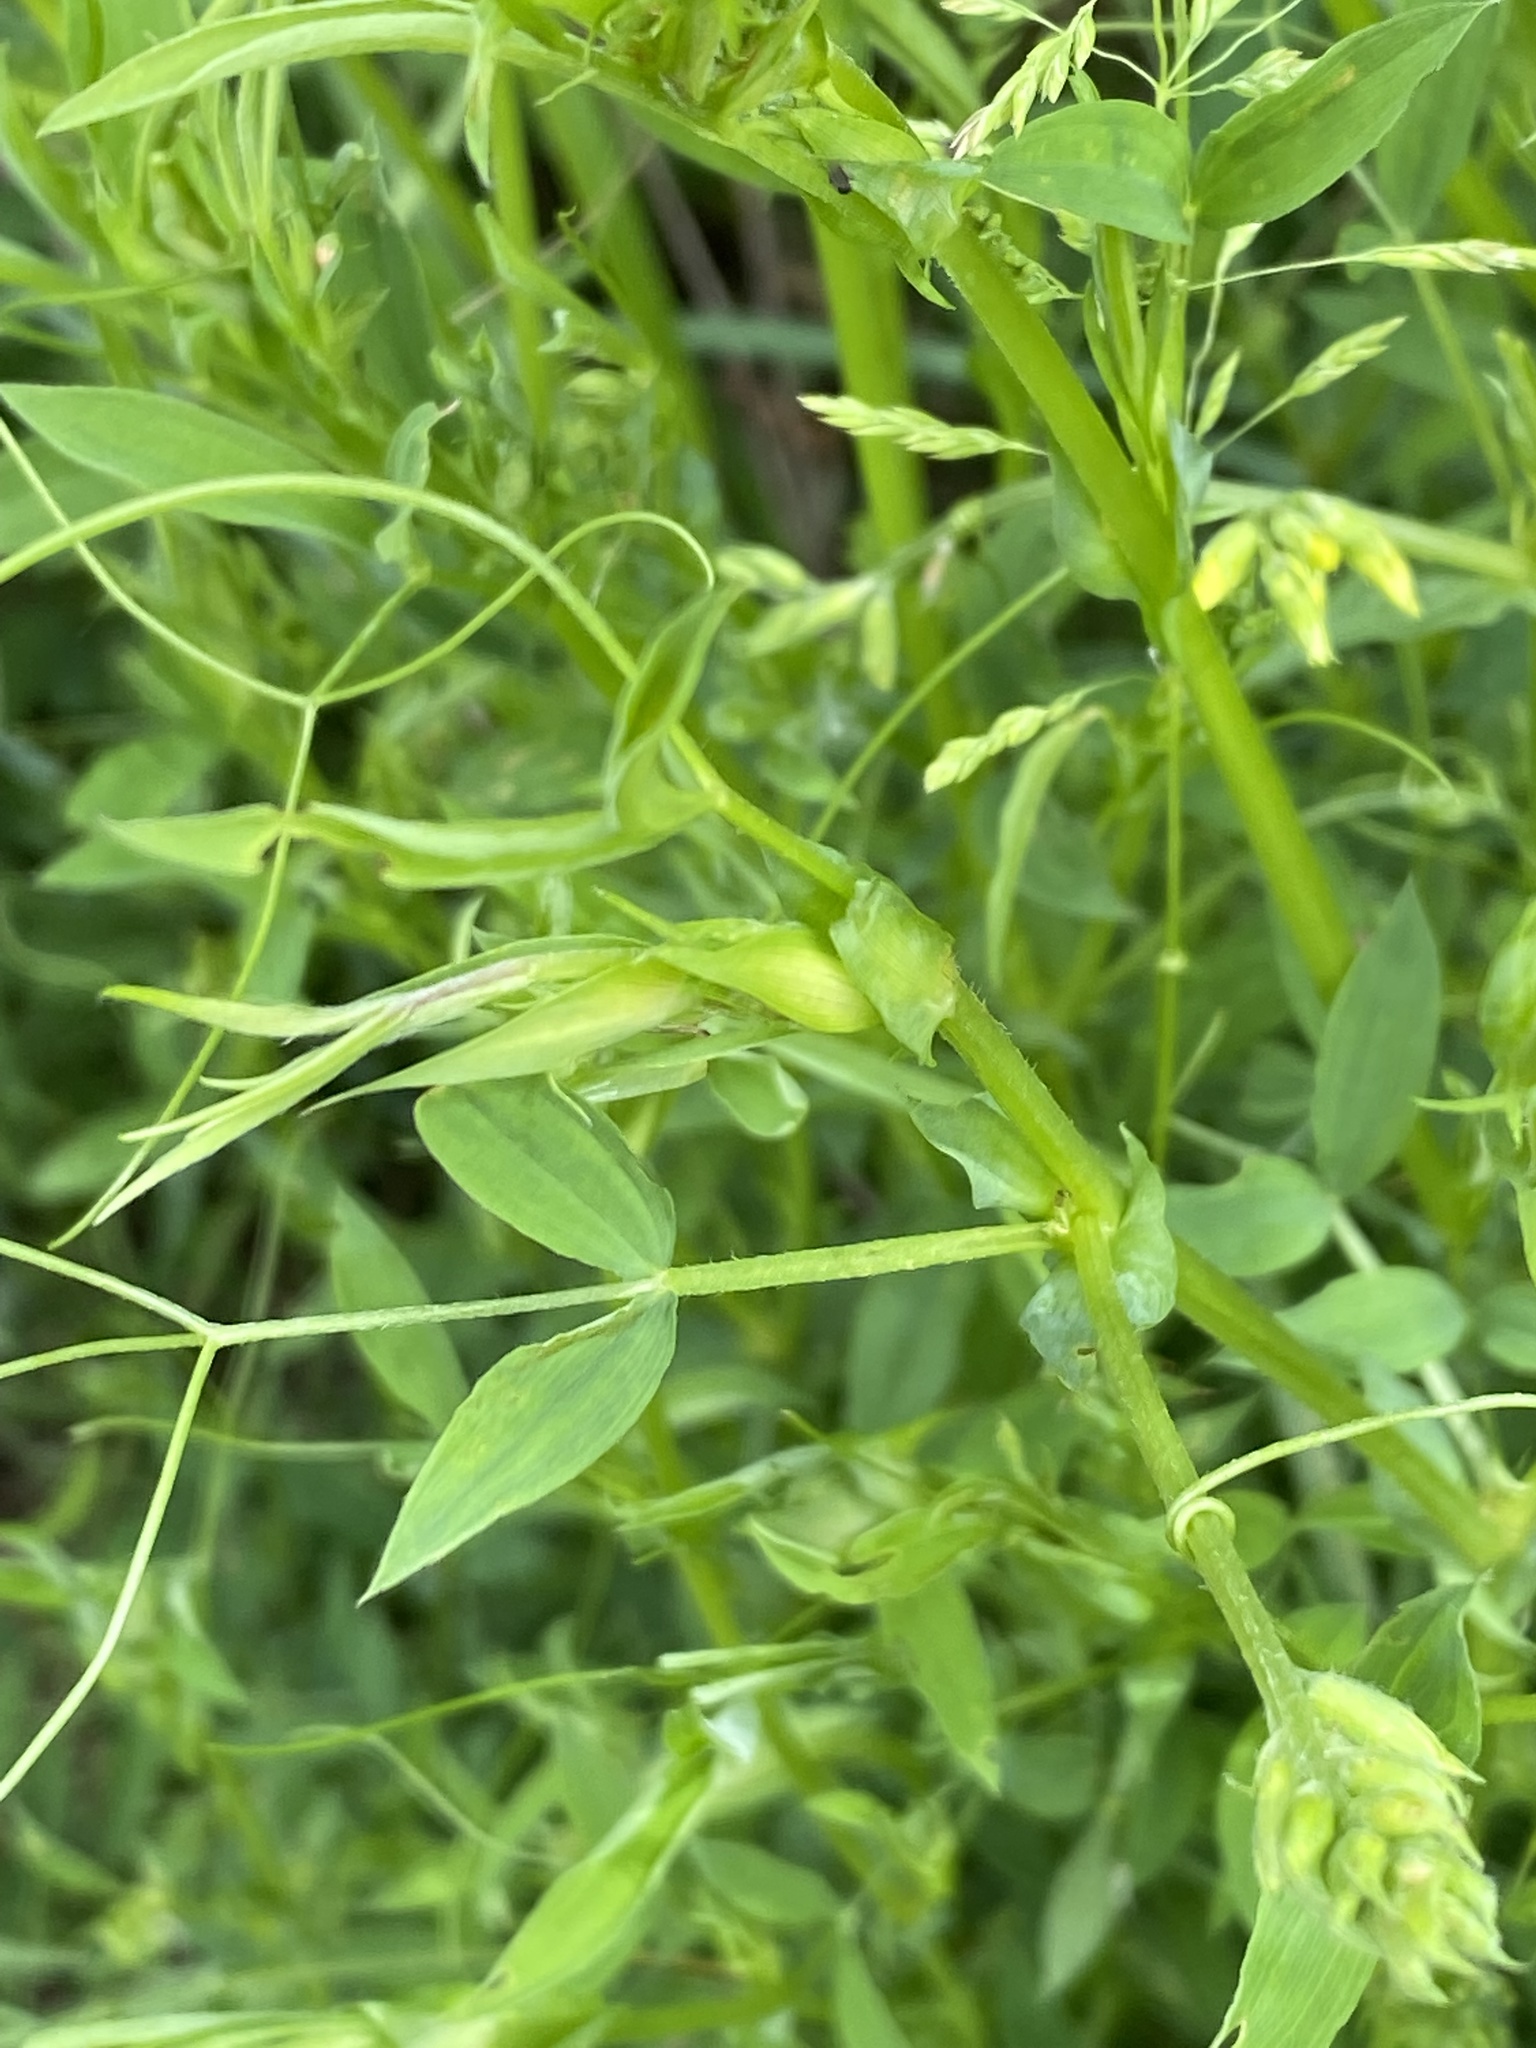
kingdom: Plantae
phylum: Tracheophyta
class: Magnoliopsida
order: Fabales
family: Fabaceae
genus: Lathyrus
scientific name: Lathyrus pratensis
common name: Meadow vetchling
